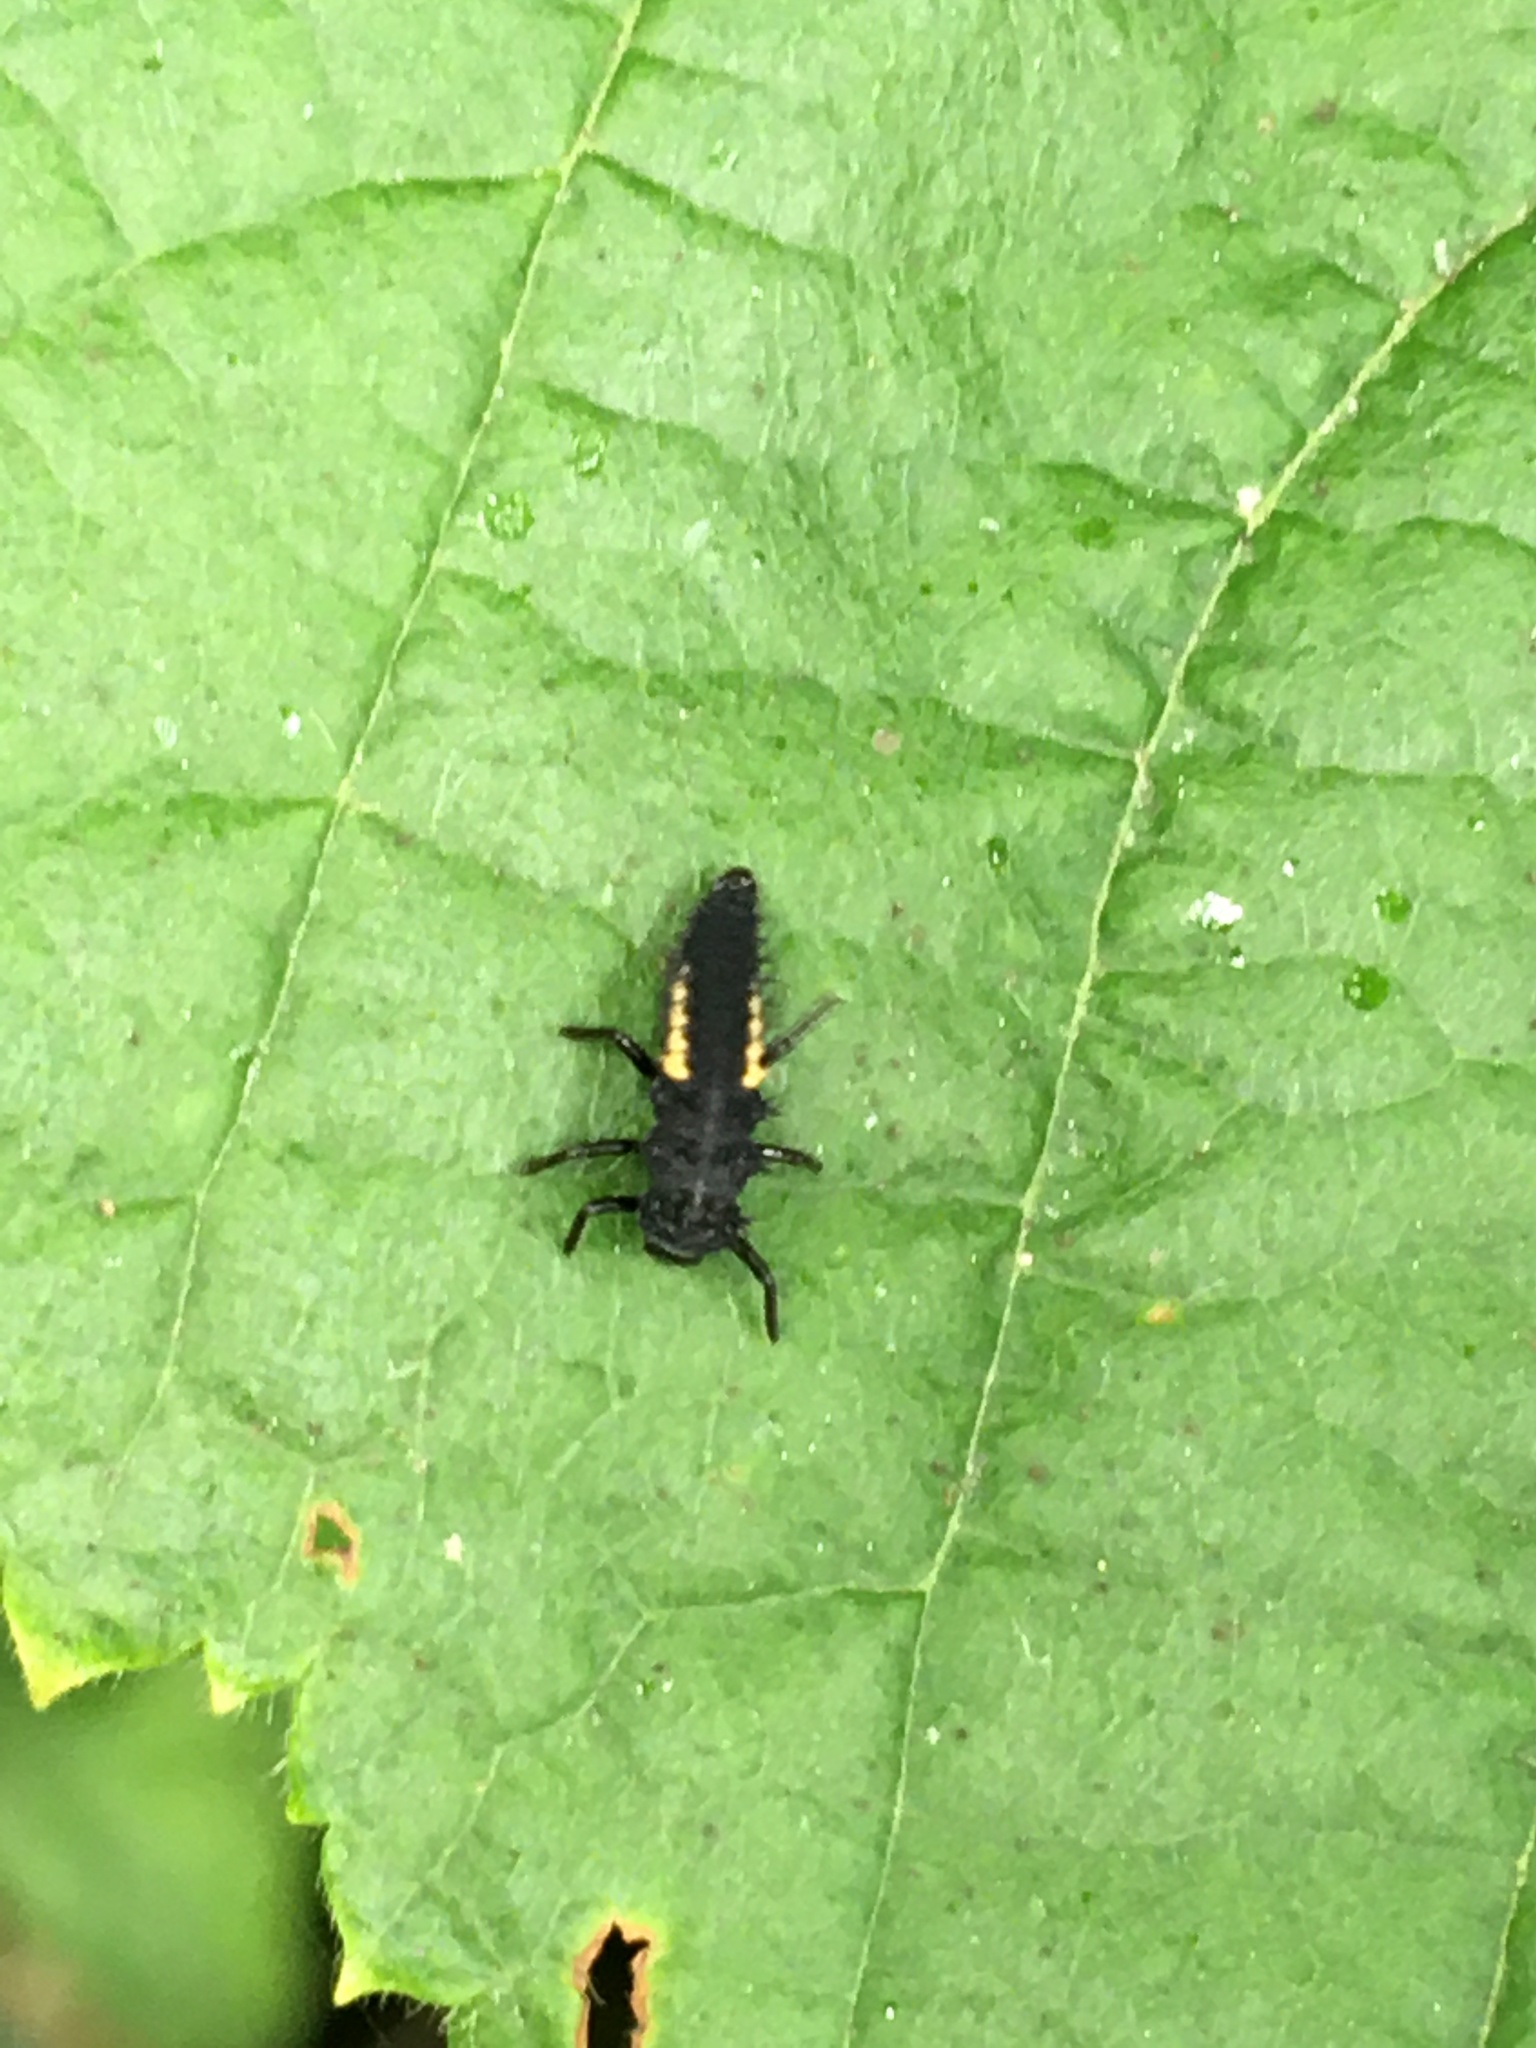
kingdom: Animalia
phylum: Arthropoda
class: Insecta
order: Coleoptera
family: Coccinellidae
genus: Harmonia
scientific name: Harmonia axyridis
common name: Harlequin ladybird
